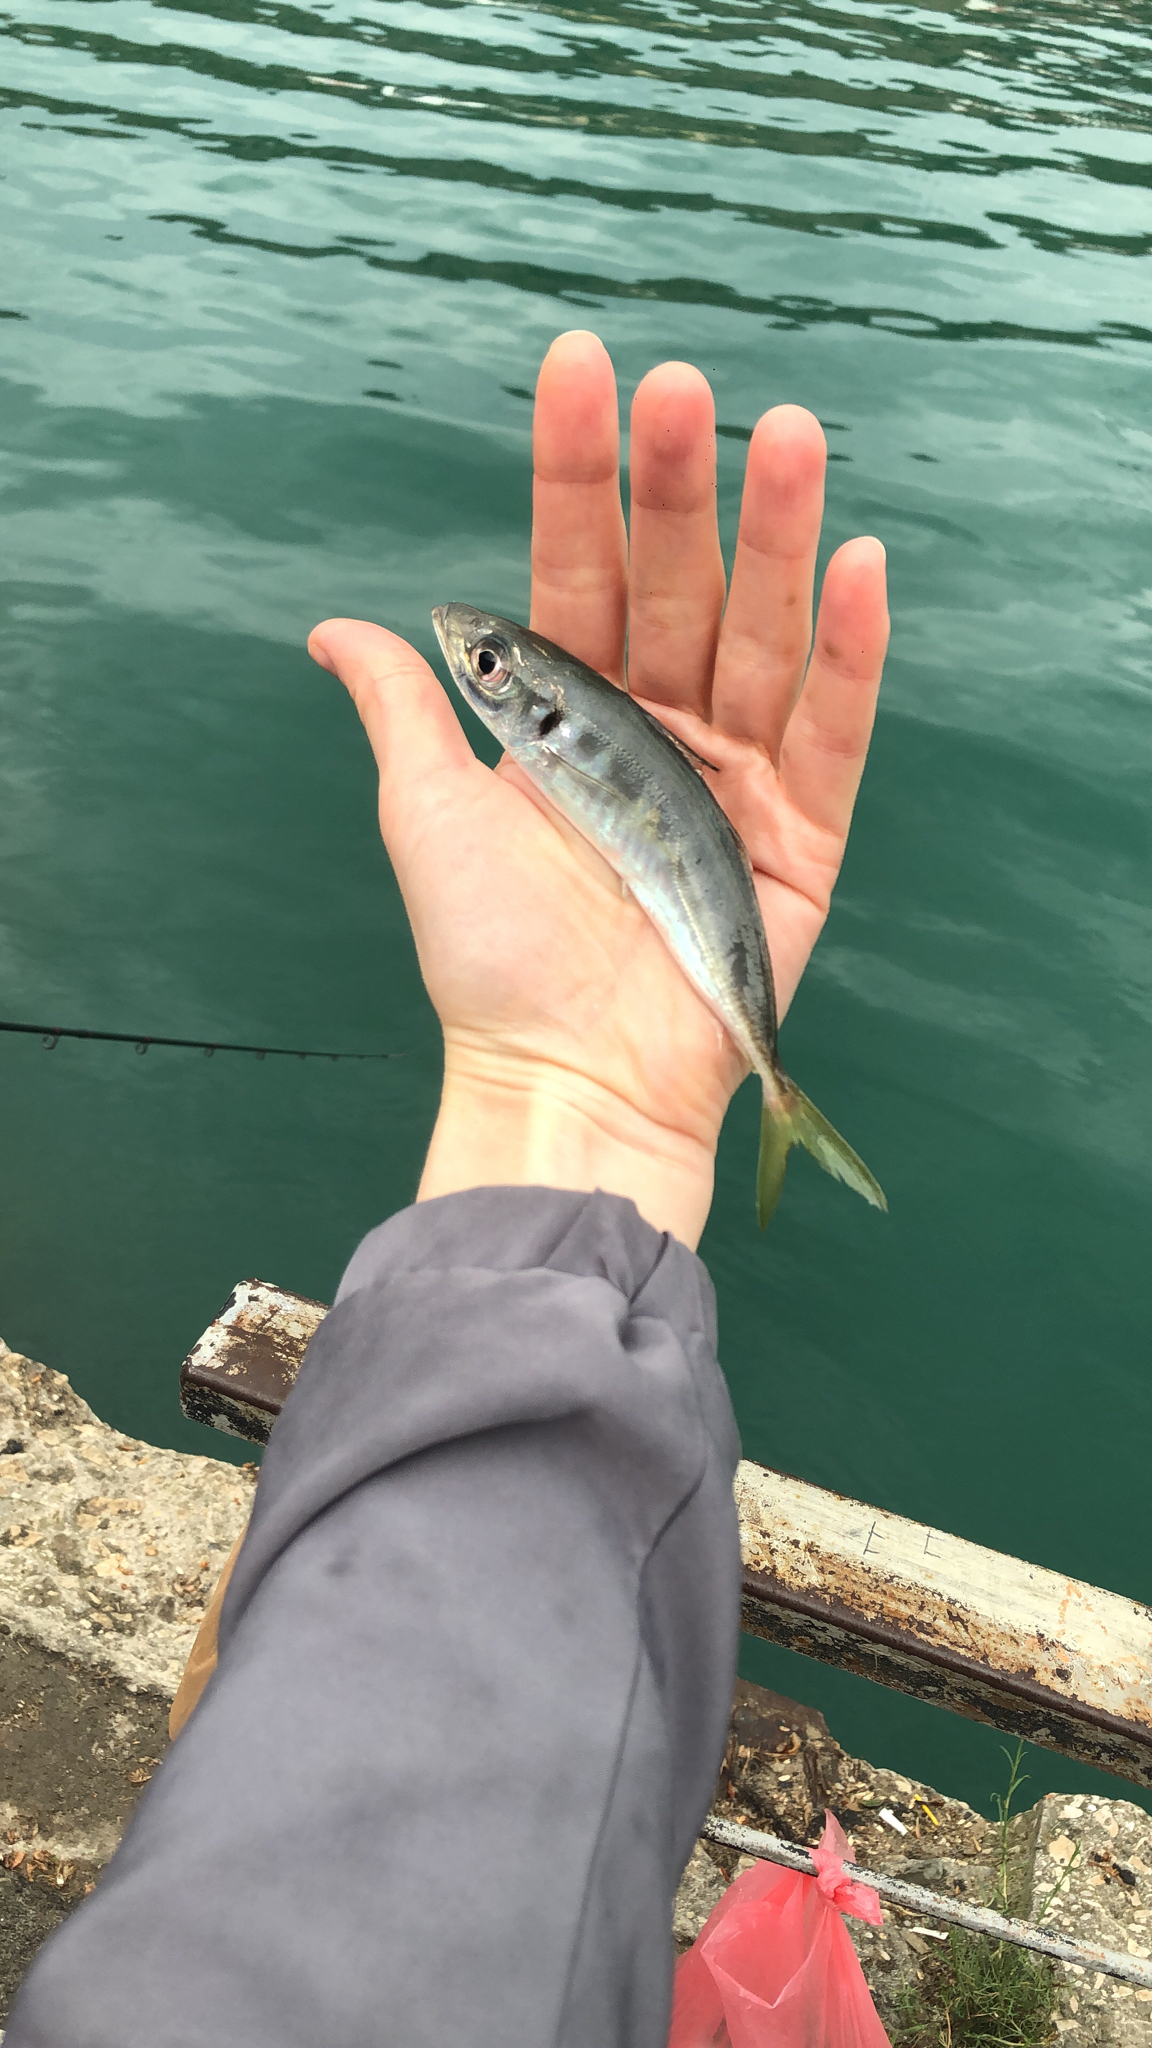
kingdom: Animalia
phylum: Chordata
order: Perciformes
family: Carangidae
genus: Trachurus
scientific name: Trachurus mediterraneus
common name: Mediterranean scad
